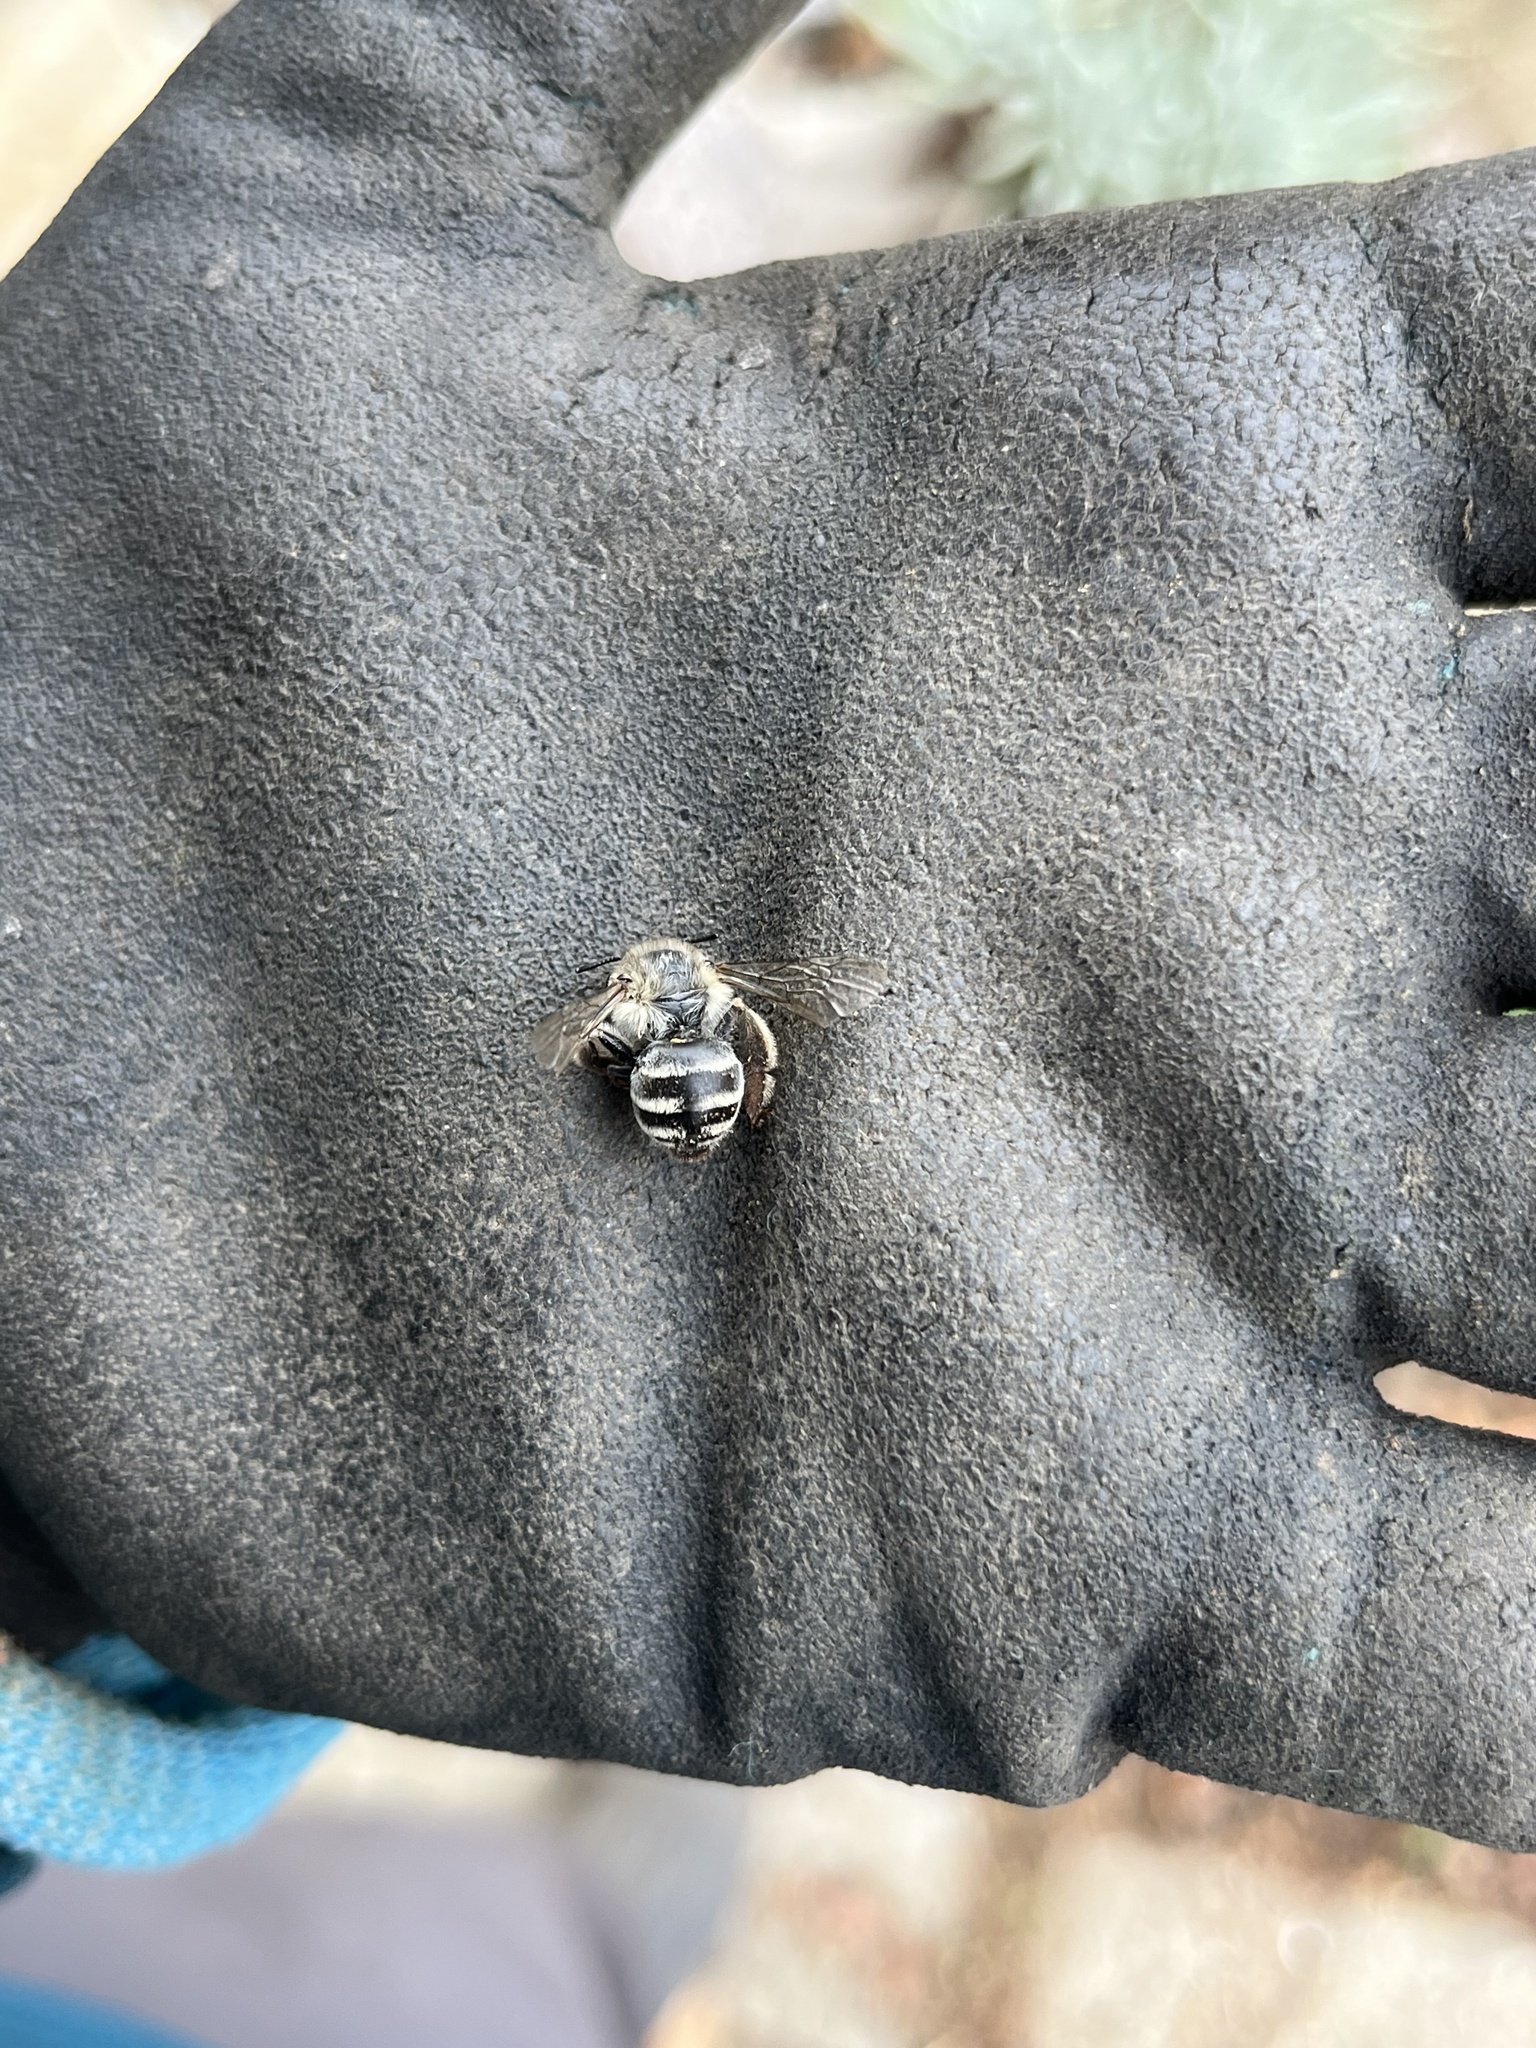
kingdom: Animalia
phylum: Arthropoda
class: Insecta
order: Hymenoptera
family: Apidae
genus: Anthophora
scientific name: Anthophora urbana
